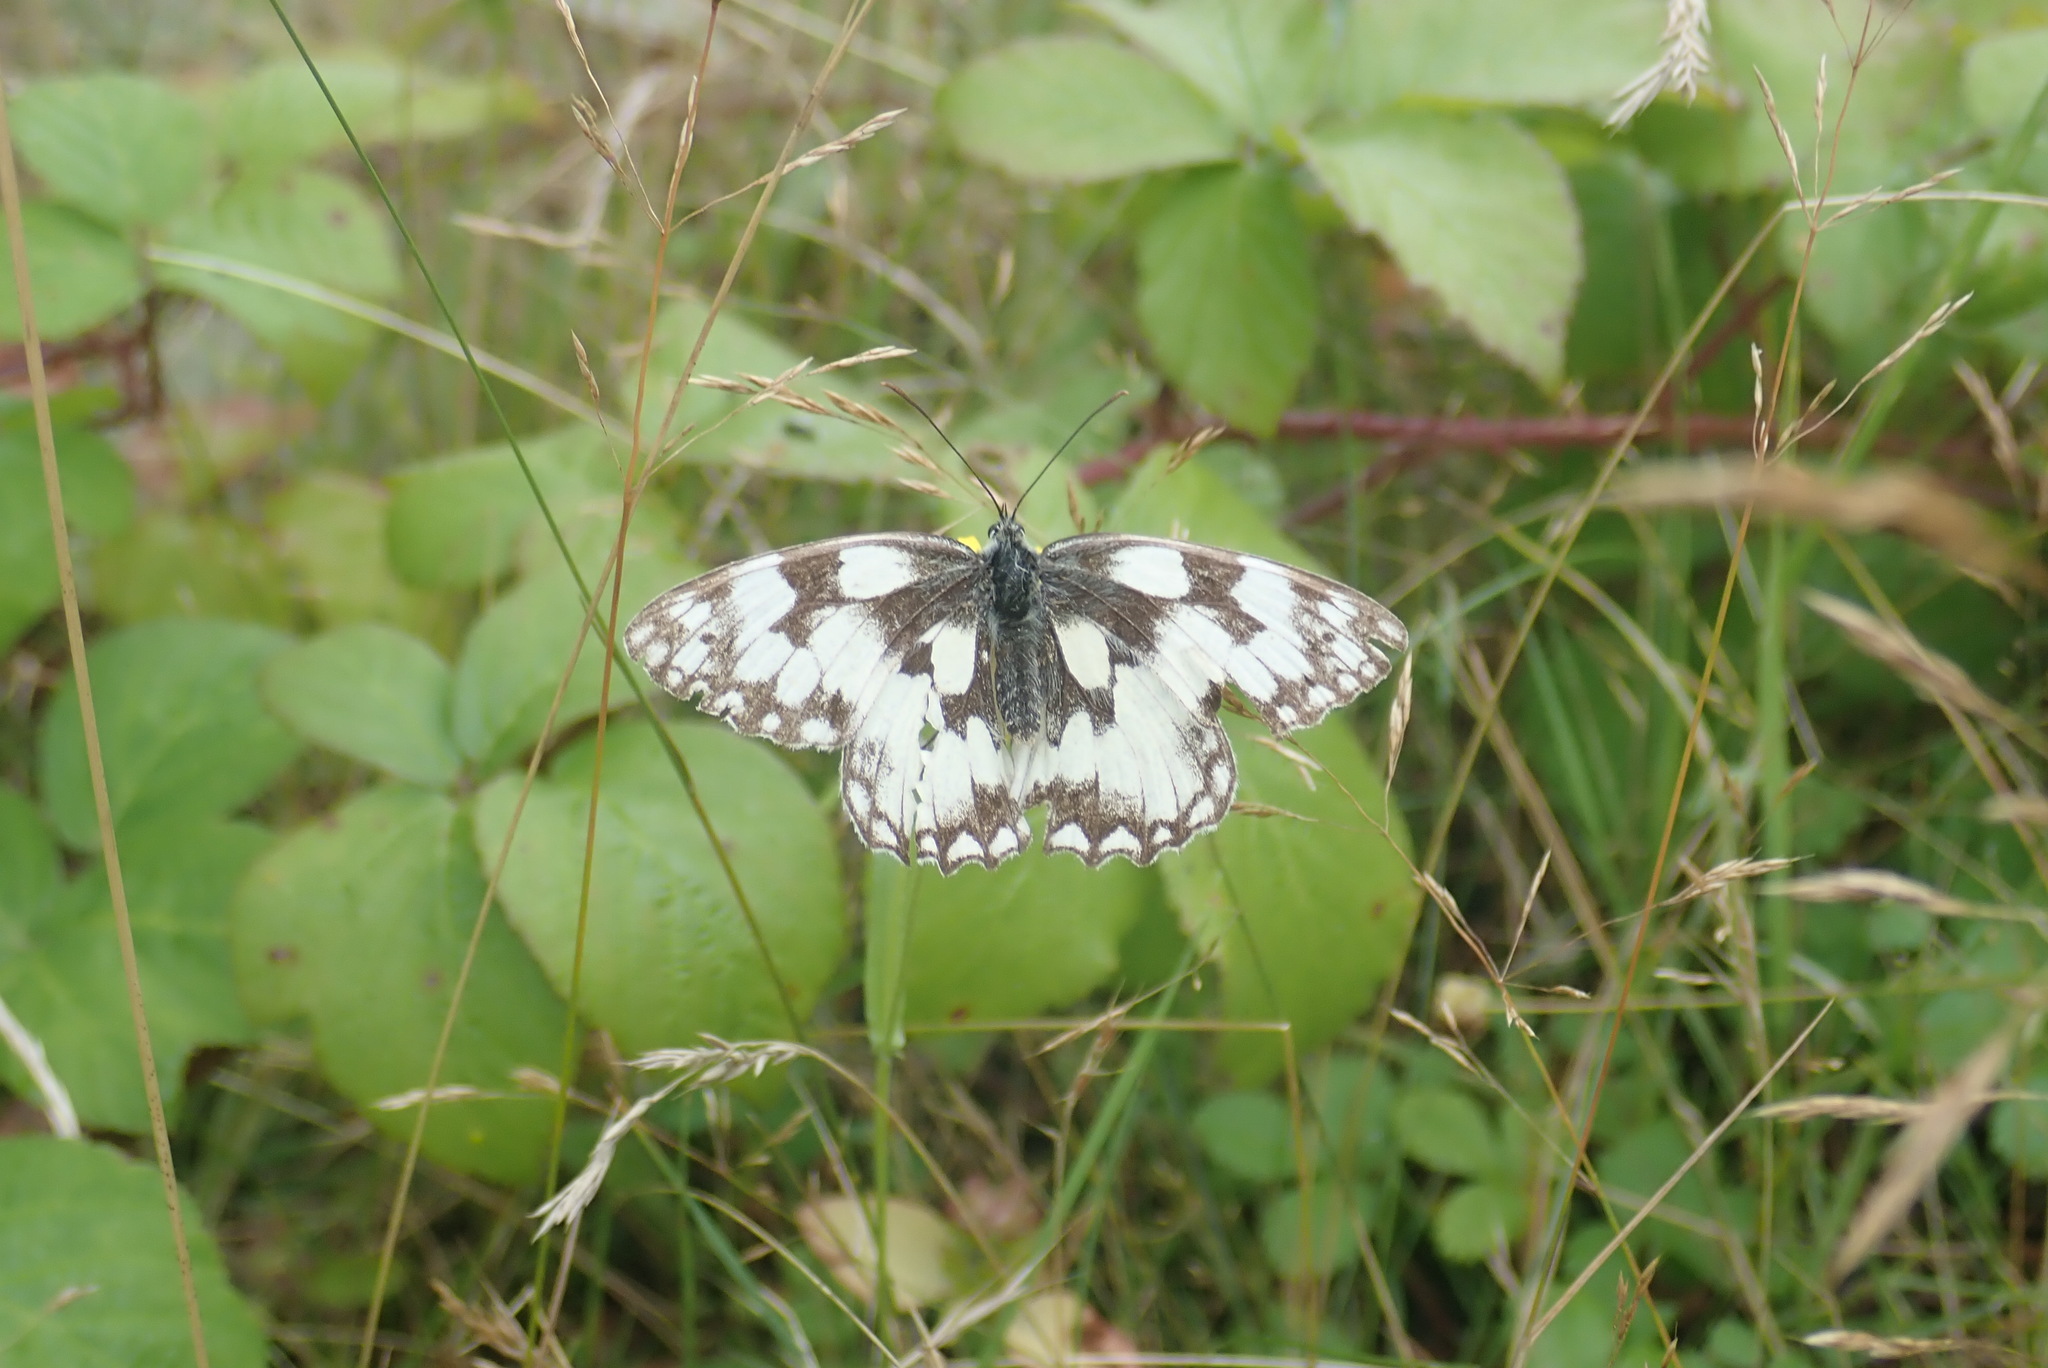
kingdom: Animalia
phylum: Arthropoda
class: Insecta
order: Lepidoptera
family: Nymphalidae
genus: Melanargia
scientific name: Melanargia galathea
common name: Marbled white
